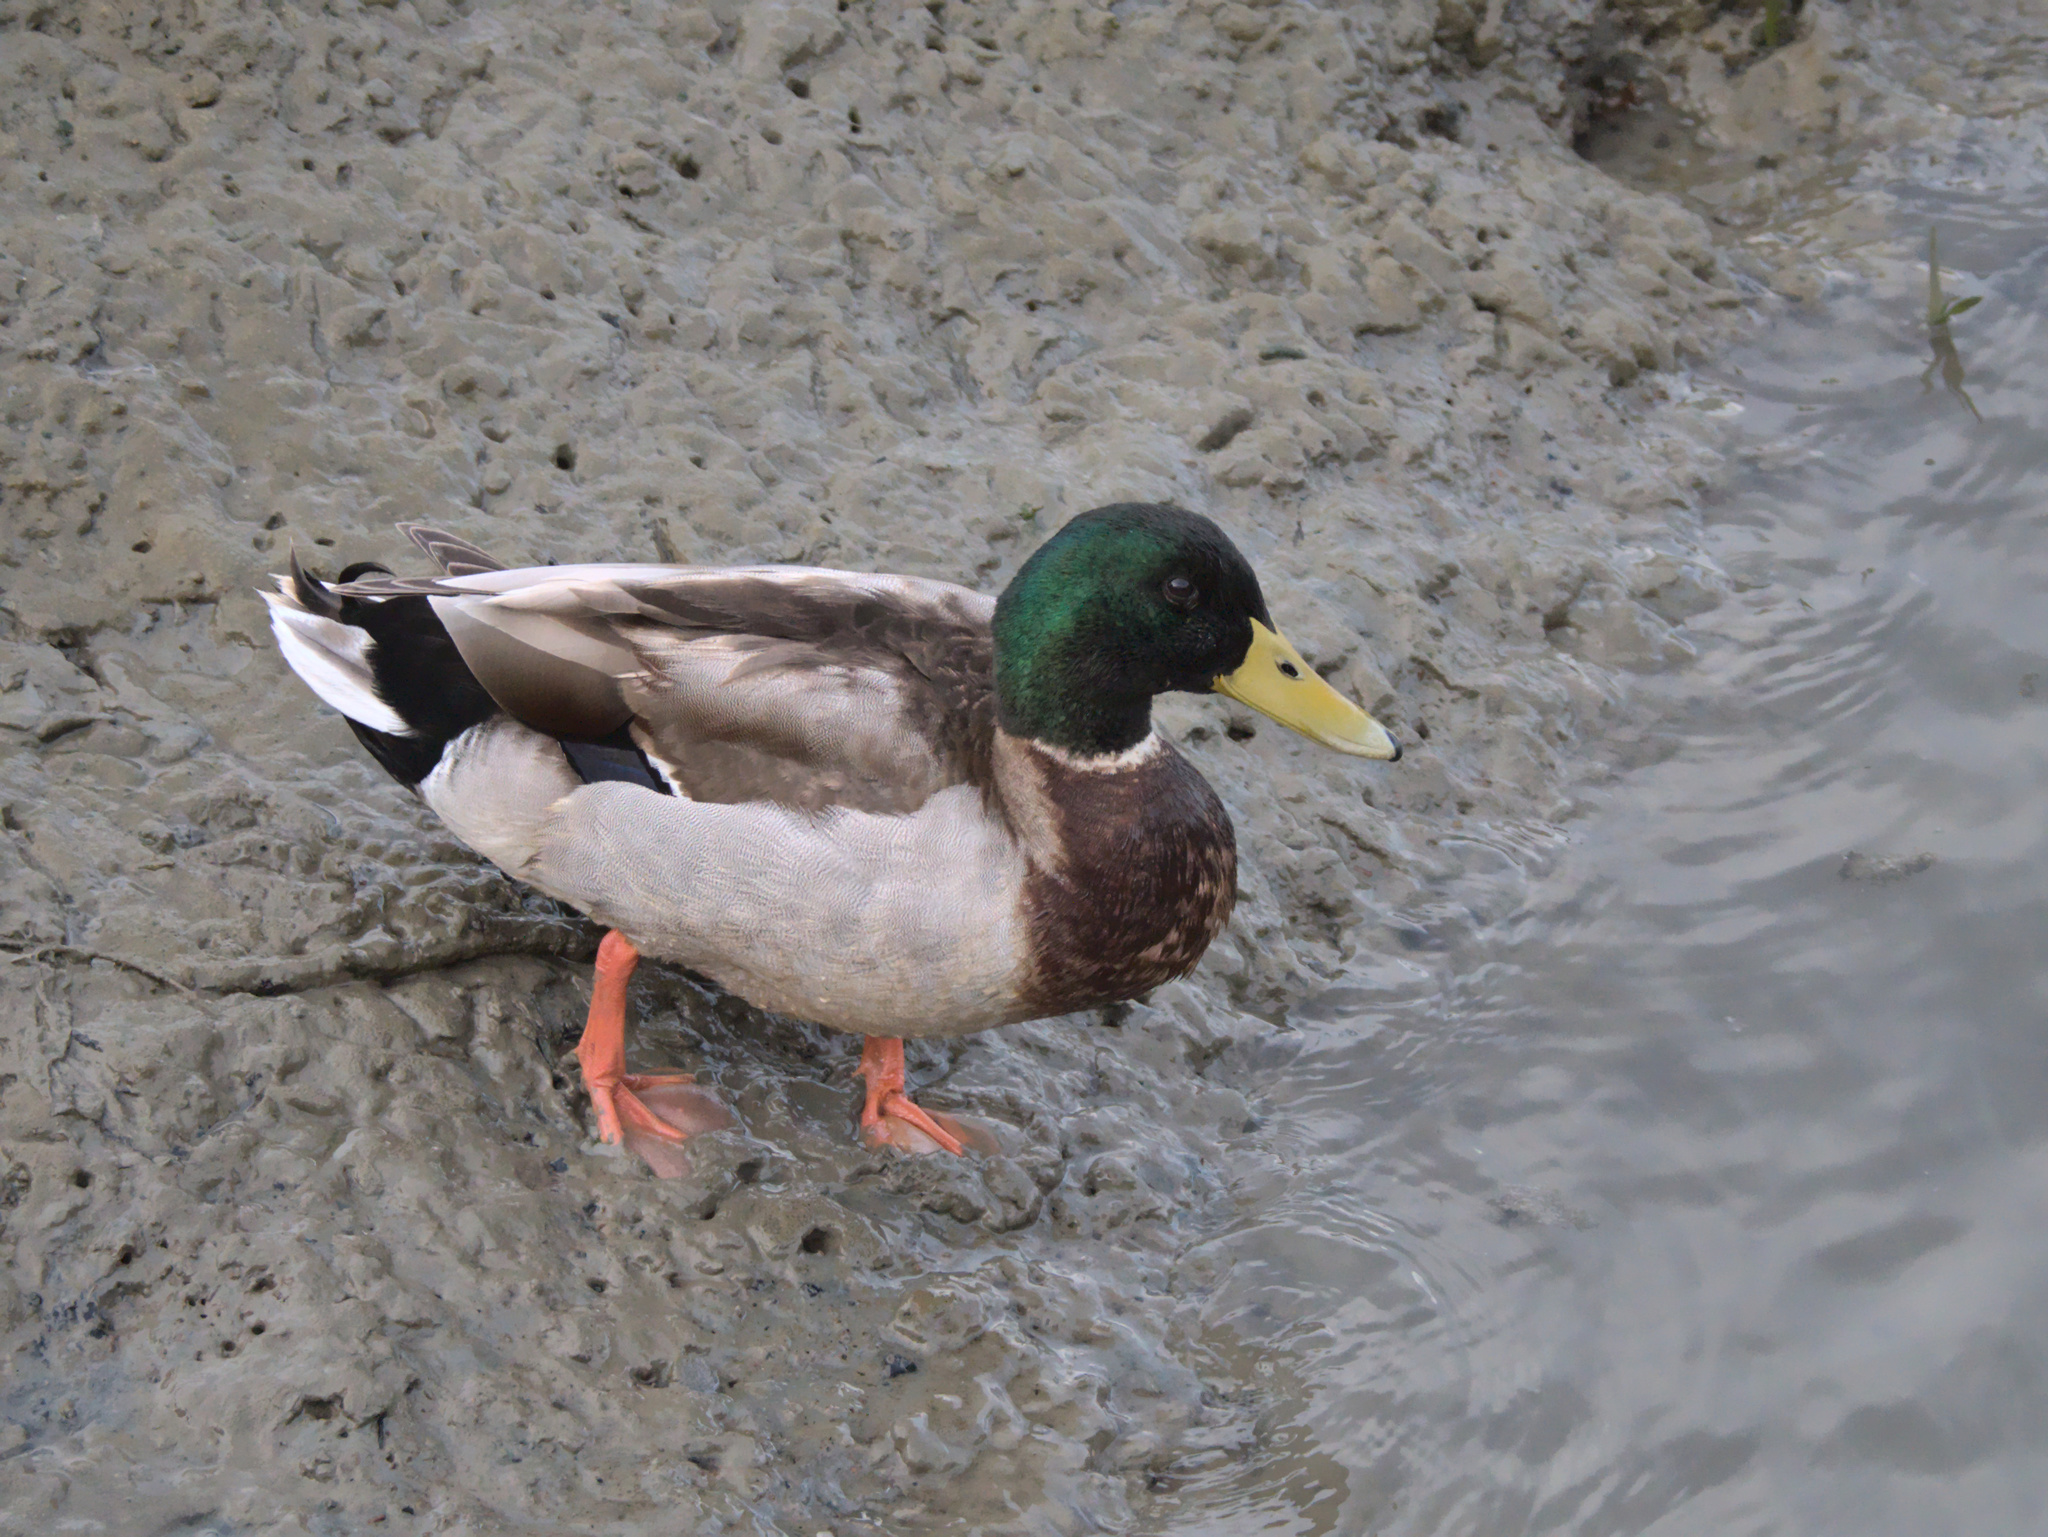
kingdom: Animalia
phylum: Chordata
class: Aves
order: Anseriformes
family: Anatidae
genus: Anas
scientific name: Anas platyrhynchos
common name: Mallard
